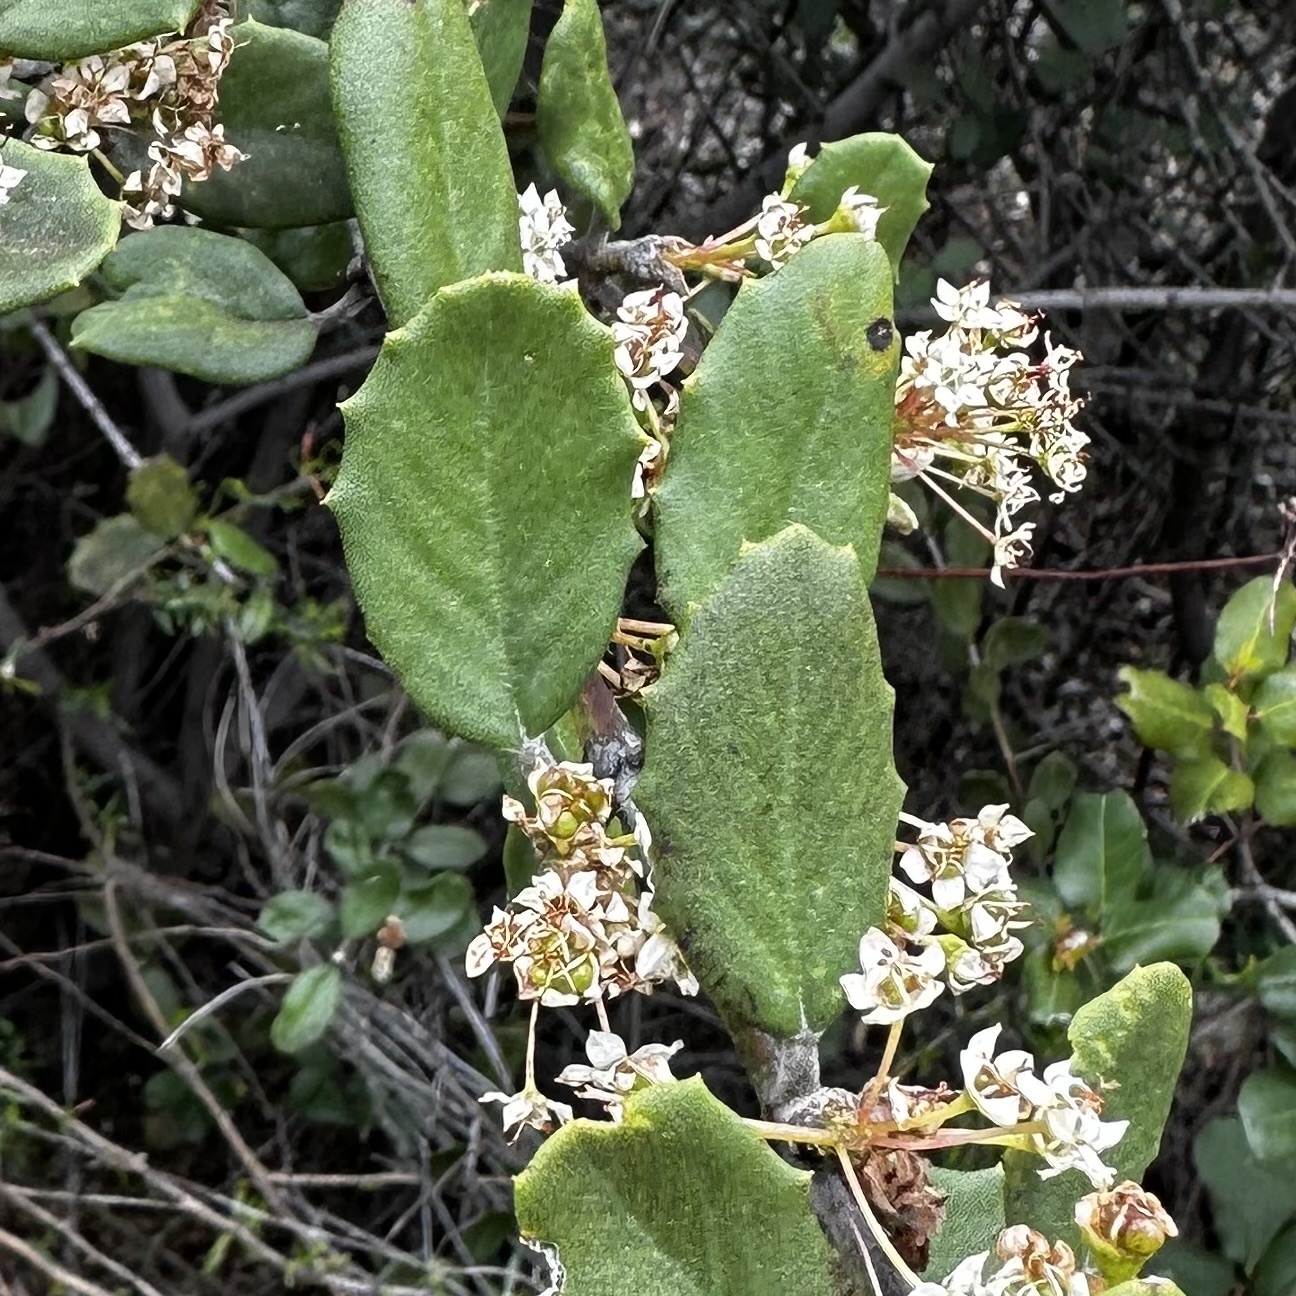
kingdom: Plantae
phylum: Tracheophyta
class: Magnoliopsida
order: Rosales
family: Rhamnaceae
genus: Ceanothus
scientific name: Ceanothus crassifolius
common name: Hoaryleaf ceanothus
